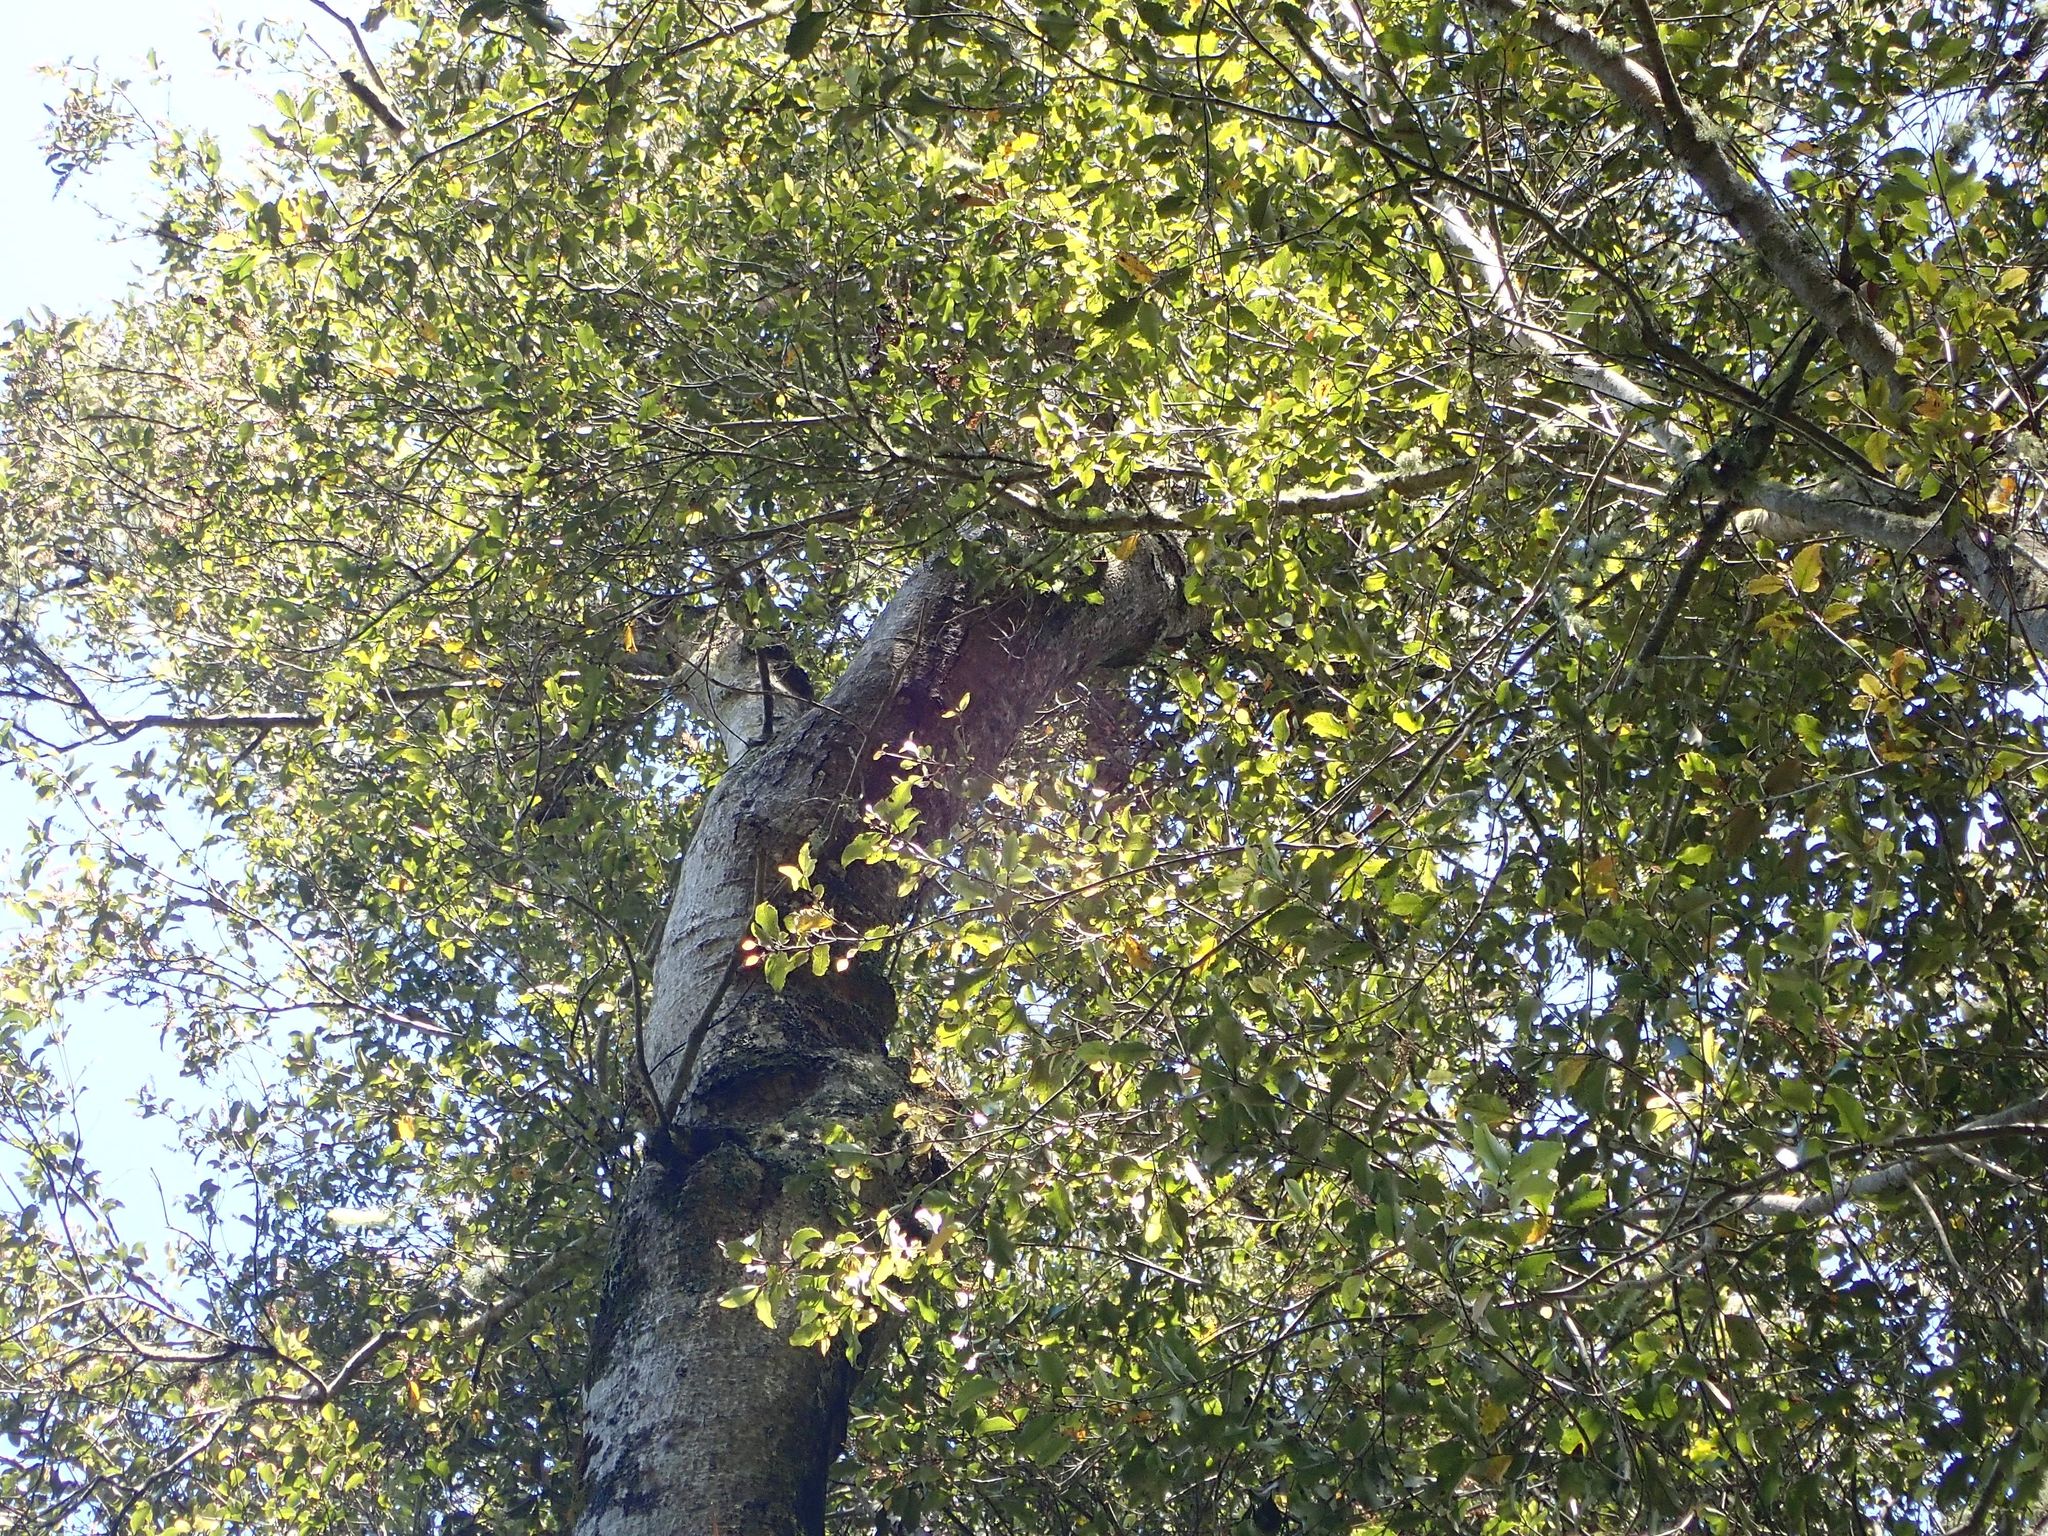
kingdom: Plantae
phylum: Tracheophyta
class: Magnoliopsida
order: Oxalidales
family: Cunoniaceae
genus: Pterophylla
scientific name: Pterophylla racemosa
